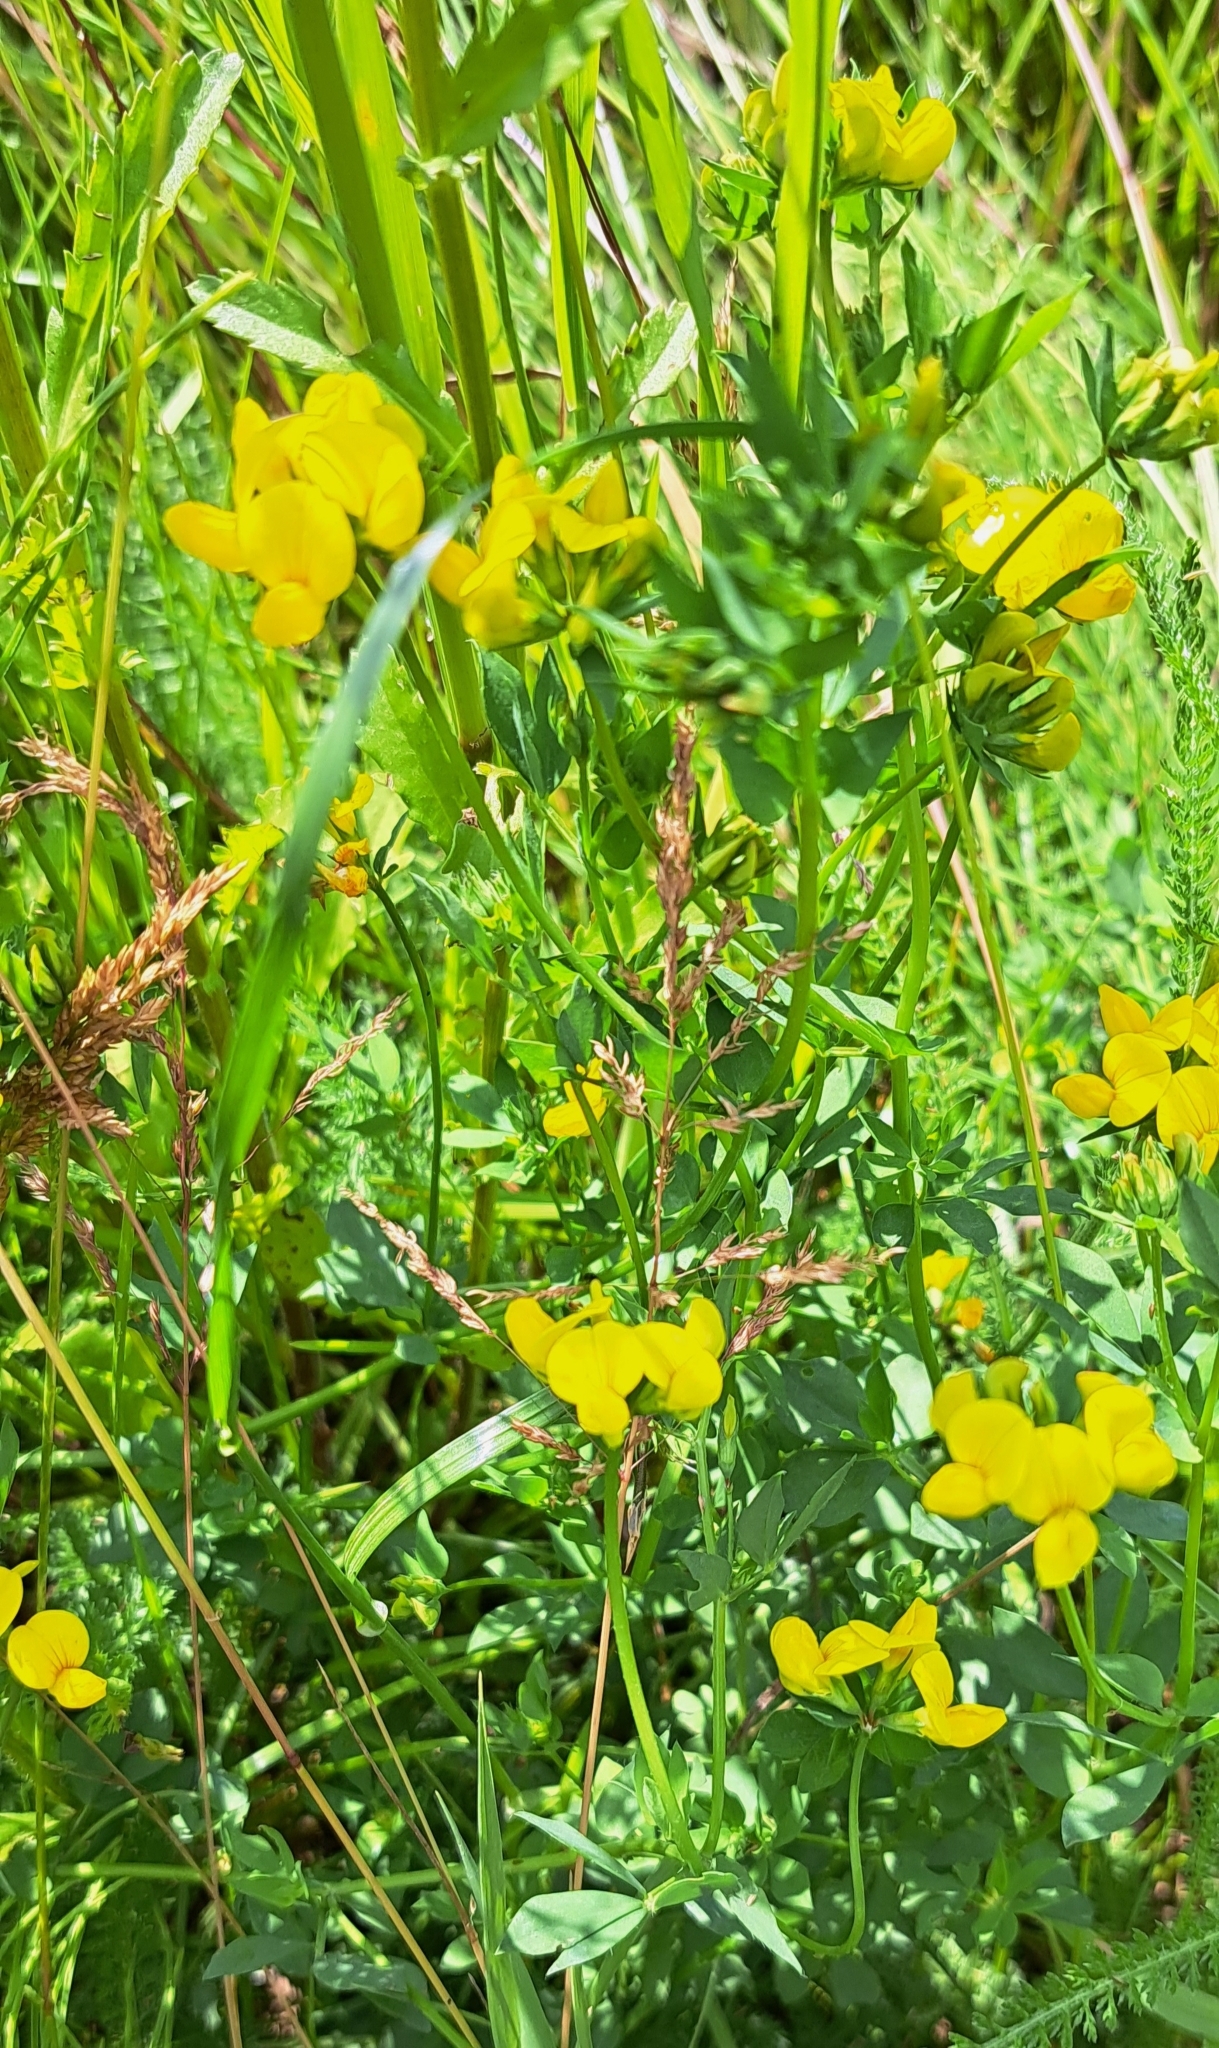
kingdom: Plantae
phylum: Tracheophyta
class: Magnoliopsida
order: Fabales
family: Fabaceae
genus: Lotus
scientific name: Lotus corniculatus
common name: Common bird's-foot-trefoil
